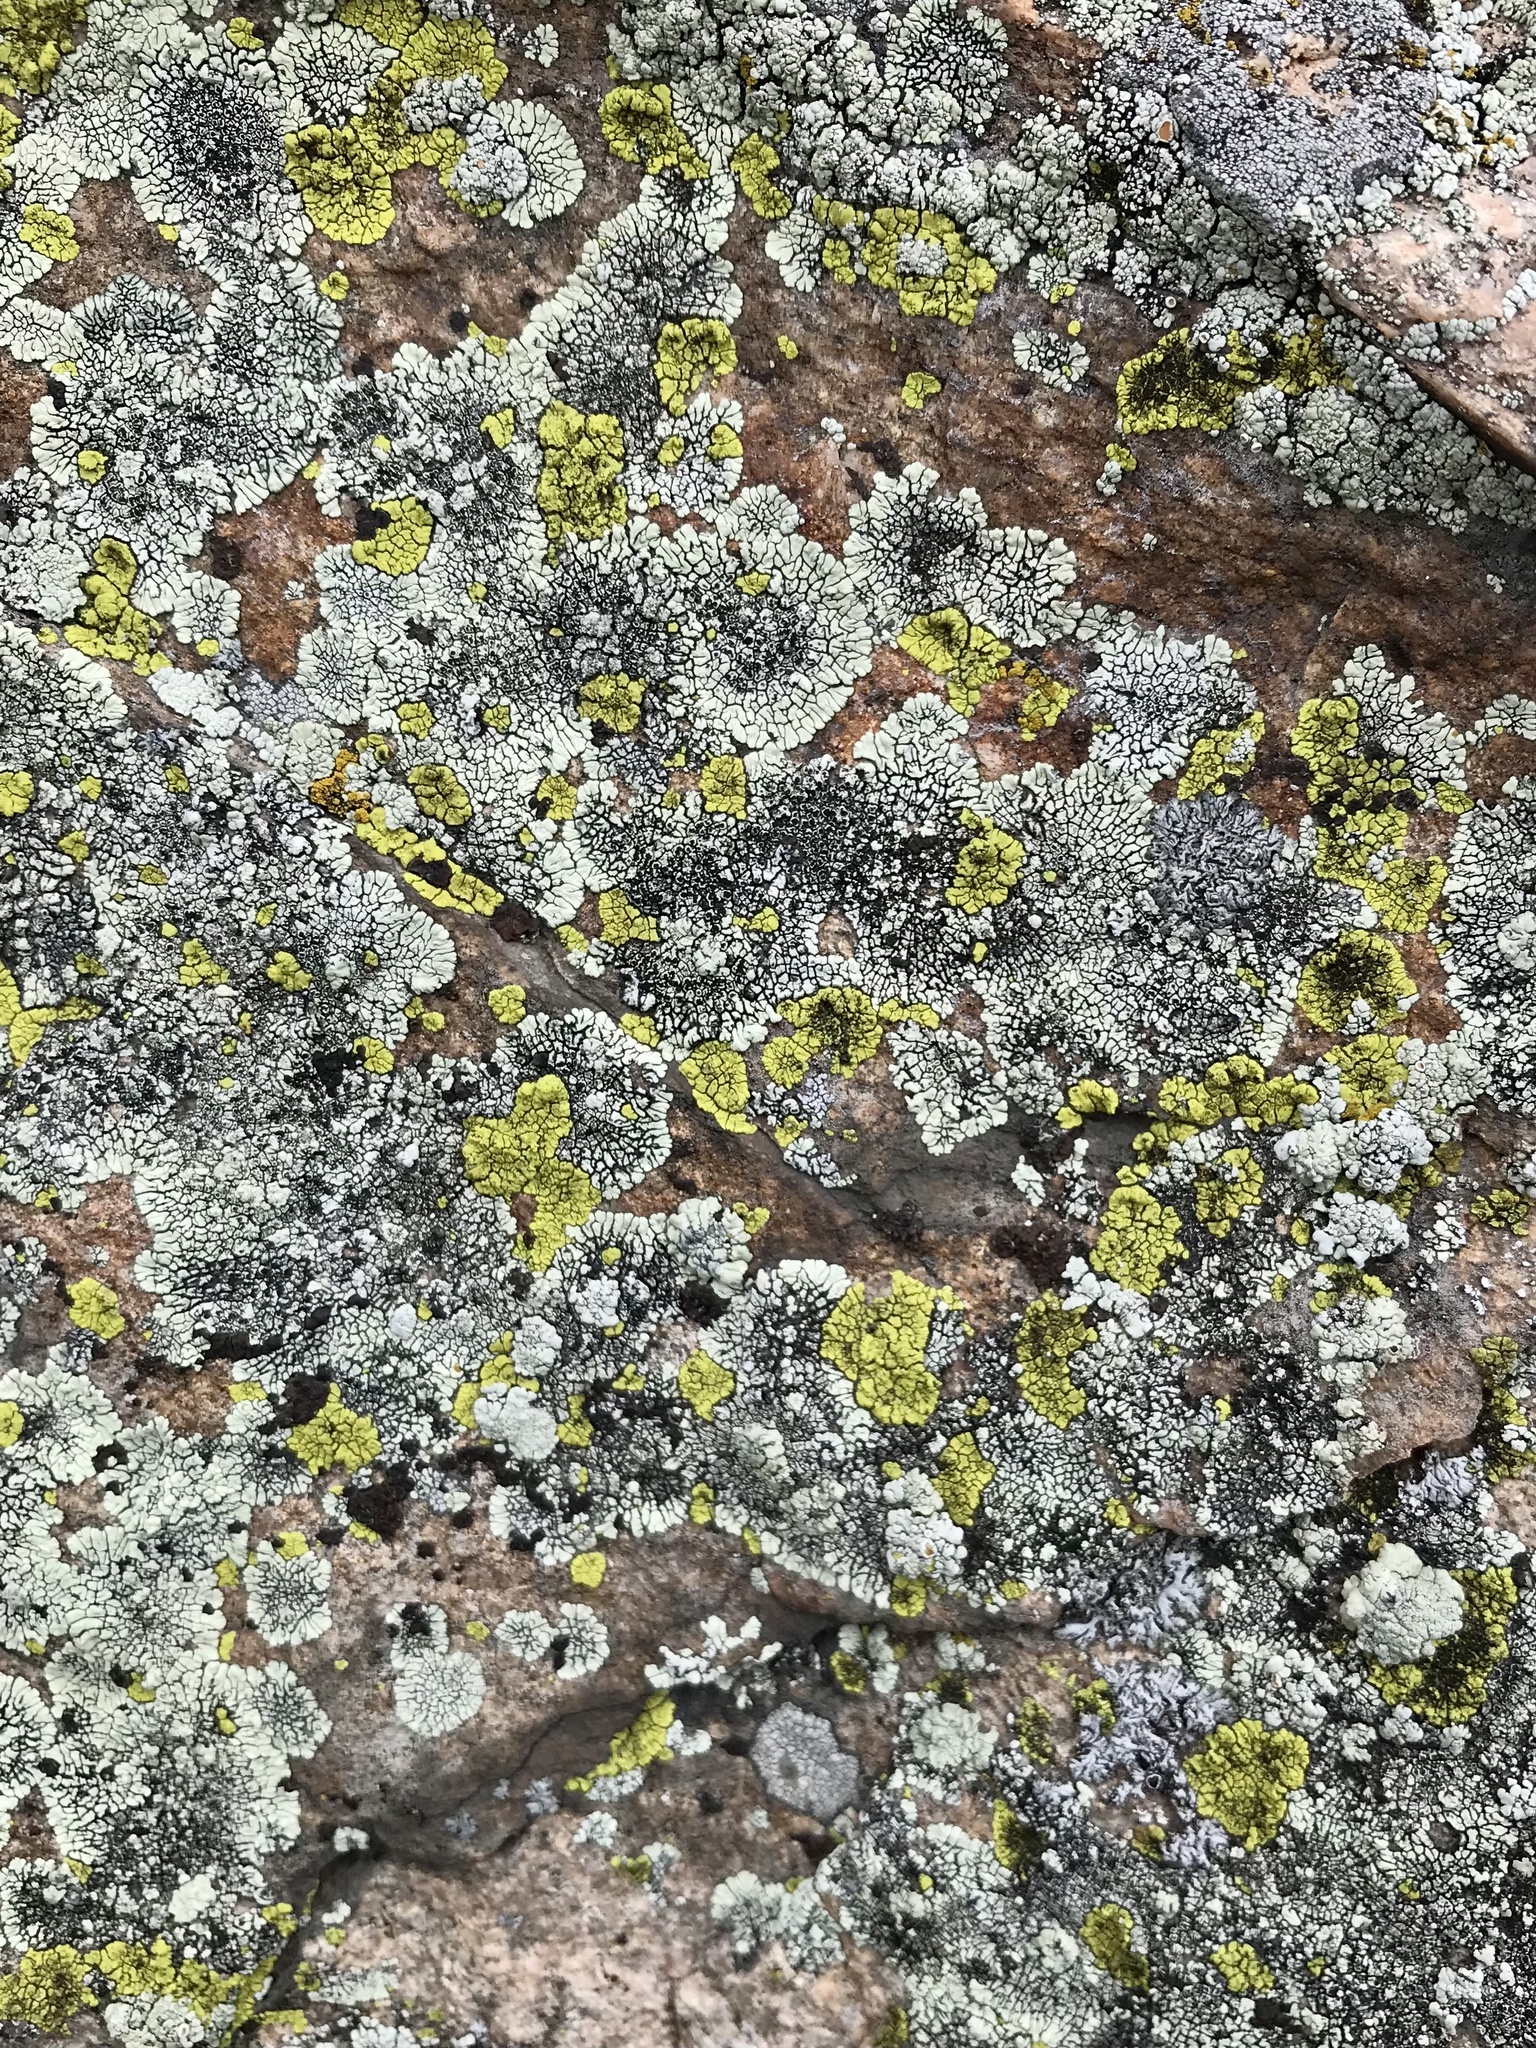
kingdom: Fungi
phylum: Ascomycota
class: Lecanoromycetes
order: Caliciales
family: Caliciaceae
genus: Dimelaena
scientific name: Dimelaena oreina
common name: Golden moonglow lichen
